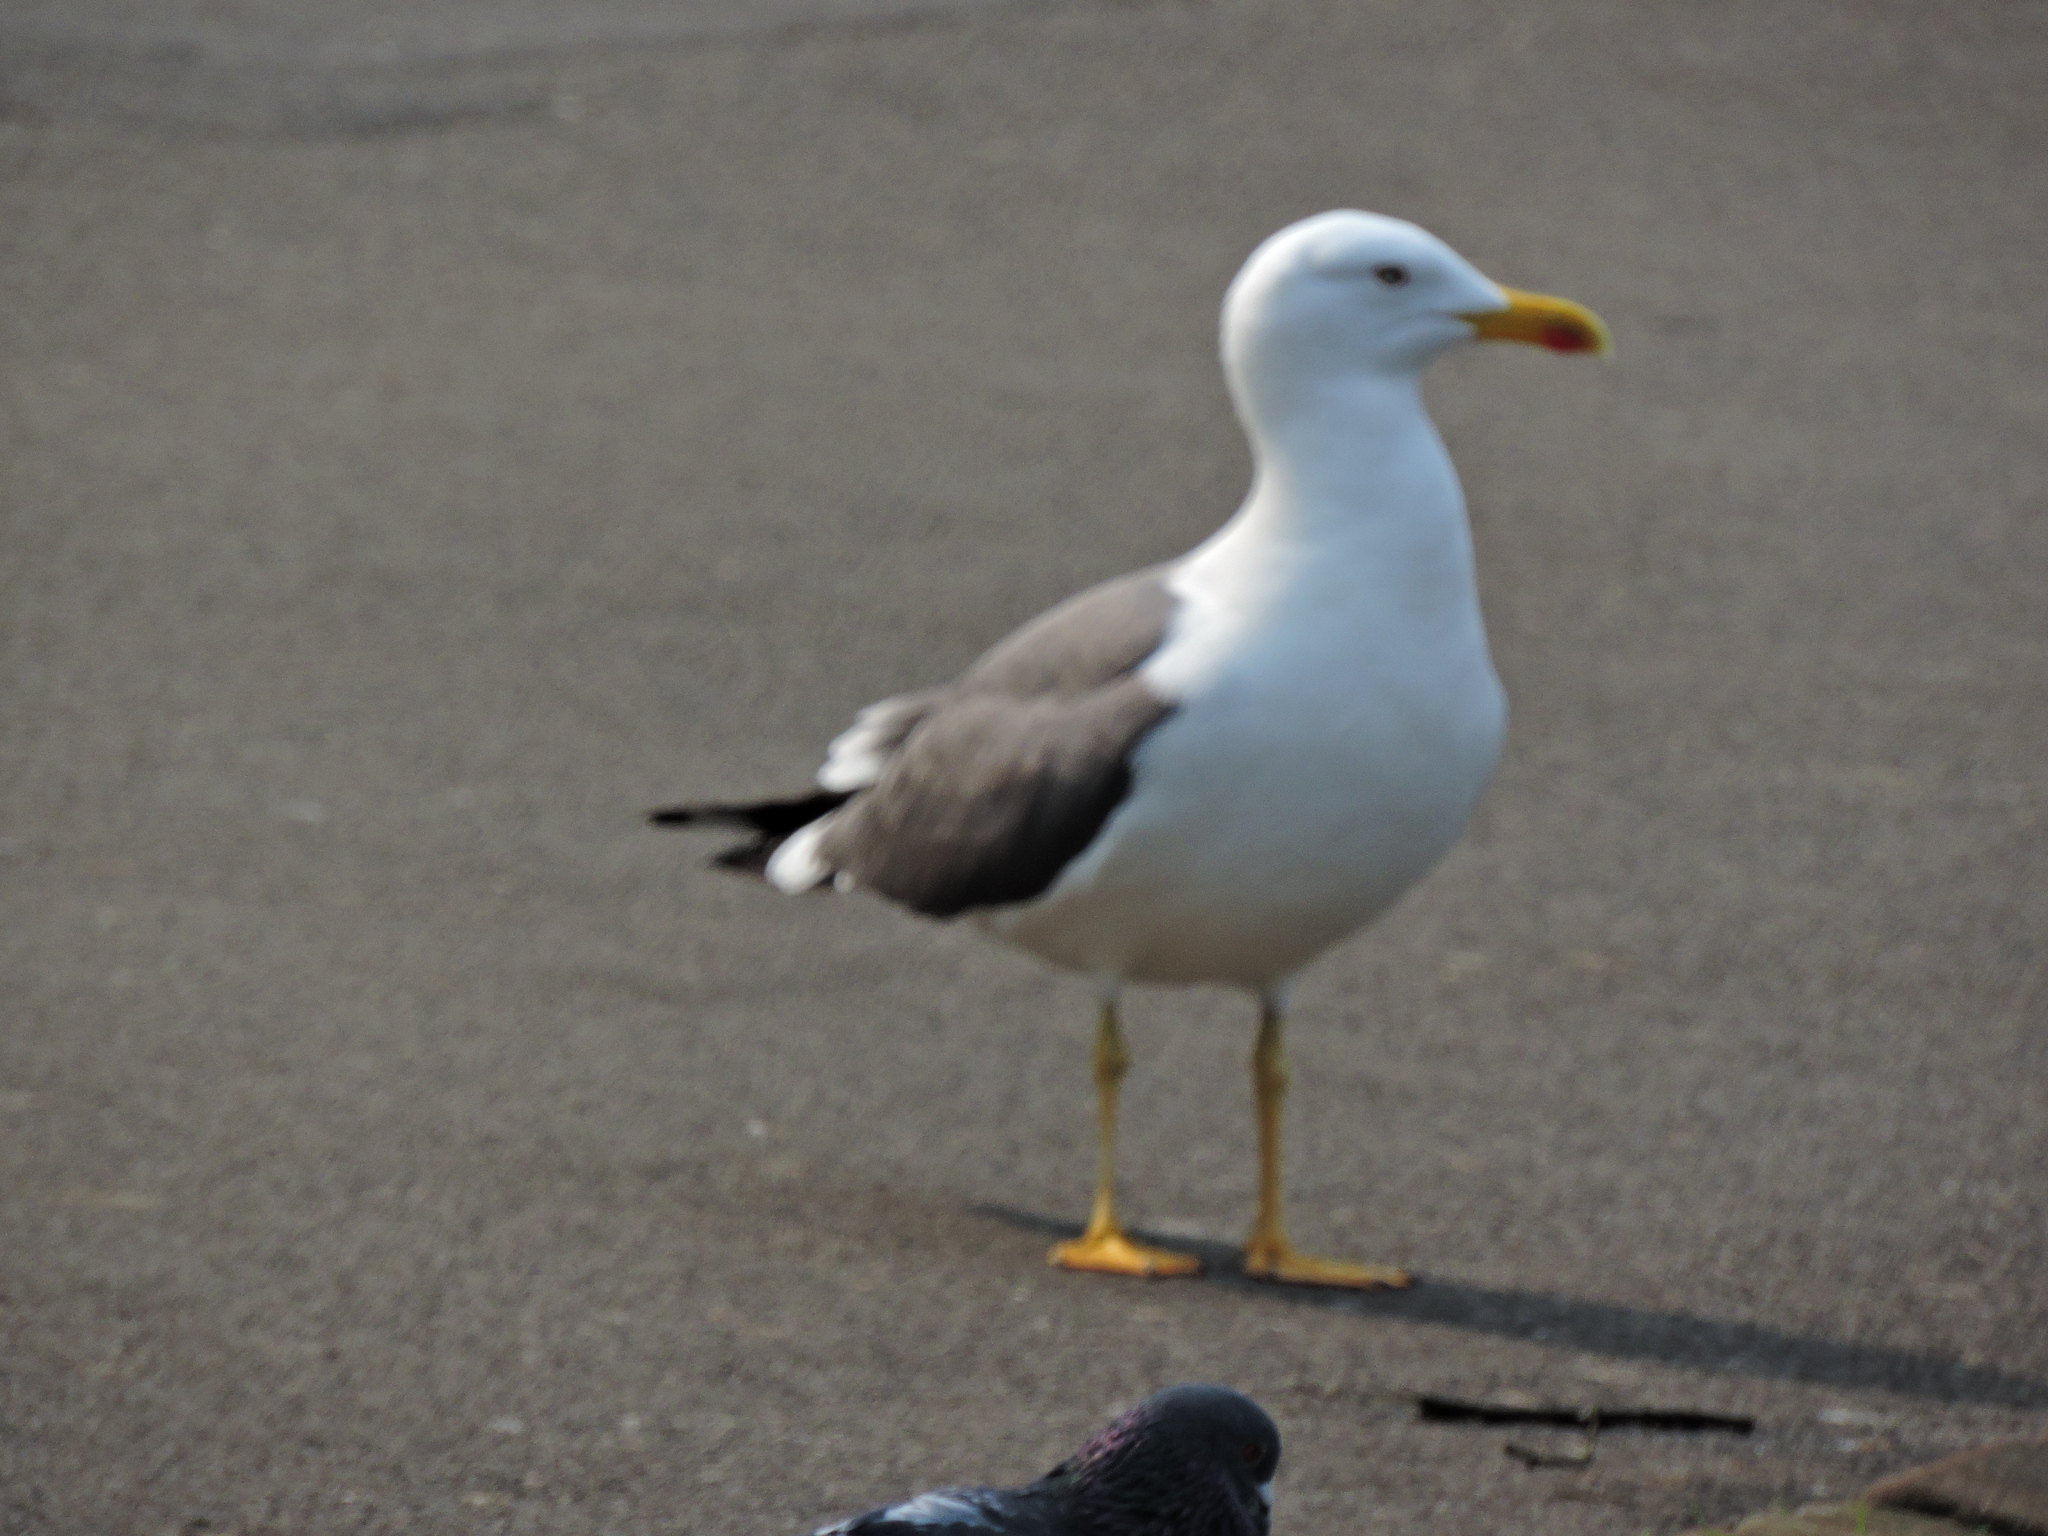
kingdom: Animalia
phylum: Chordata
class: Aves
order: Charadriiformes
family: Laridae
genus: Larus
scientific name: Larus fuscus
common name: Lesser black-backed gull
